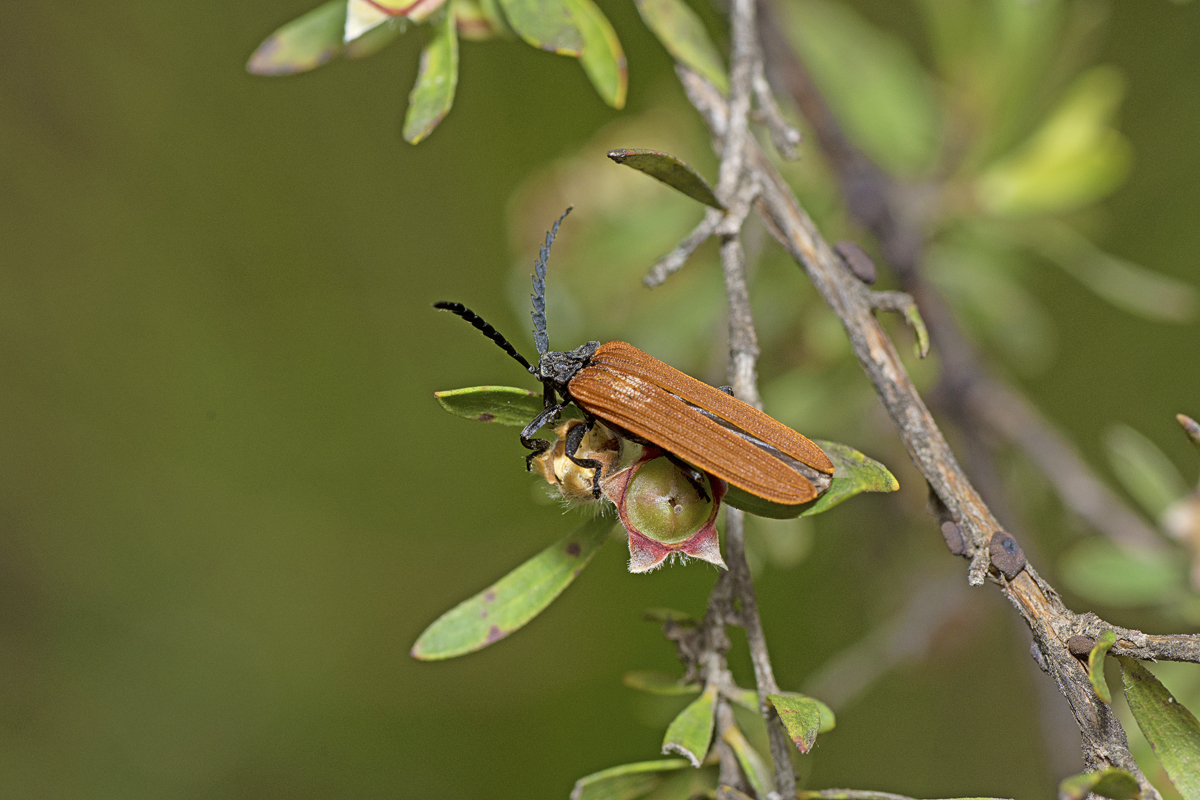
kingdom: Animalia
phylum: Arthropoda
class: Insecta
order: Coleoptera
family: Lycidae
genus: Porrostoma
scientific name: Porrostoma rhipidium
